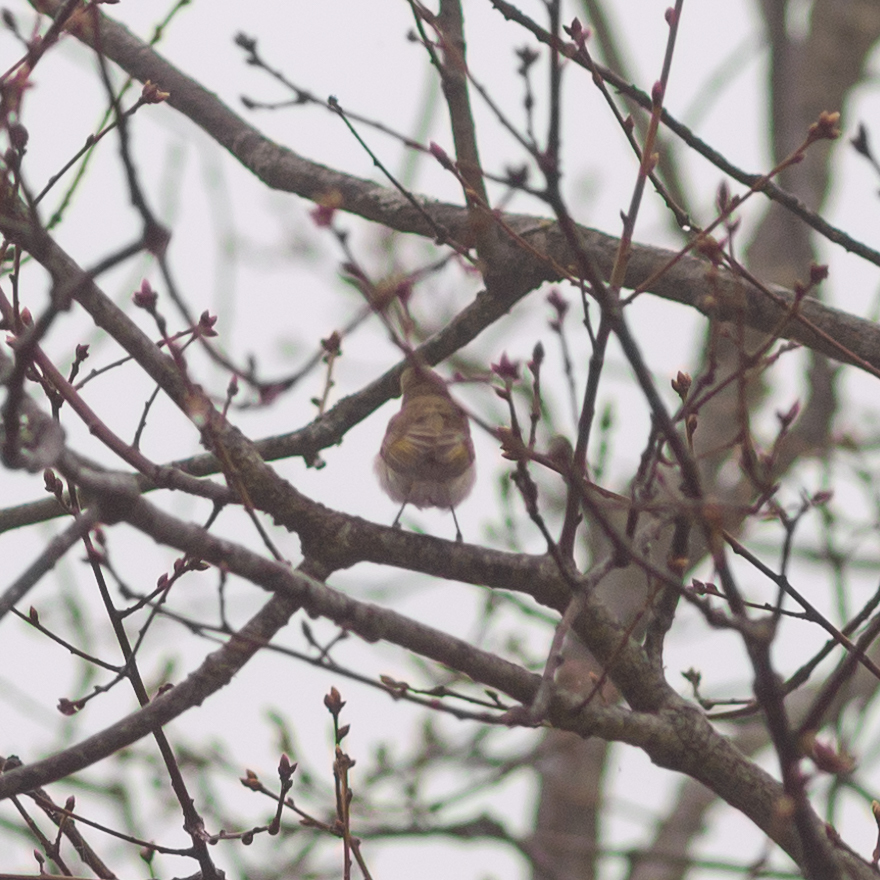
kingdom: Animalia
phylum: Chordata
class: Aves
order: Passeriformes
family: Phylloscopidae
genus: Phylloscopus
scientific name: Phylloscopus bonelli
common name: Western bonelli's warbler
